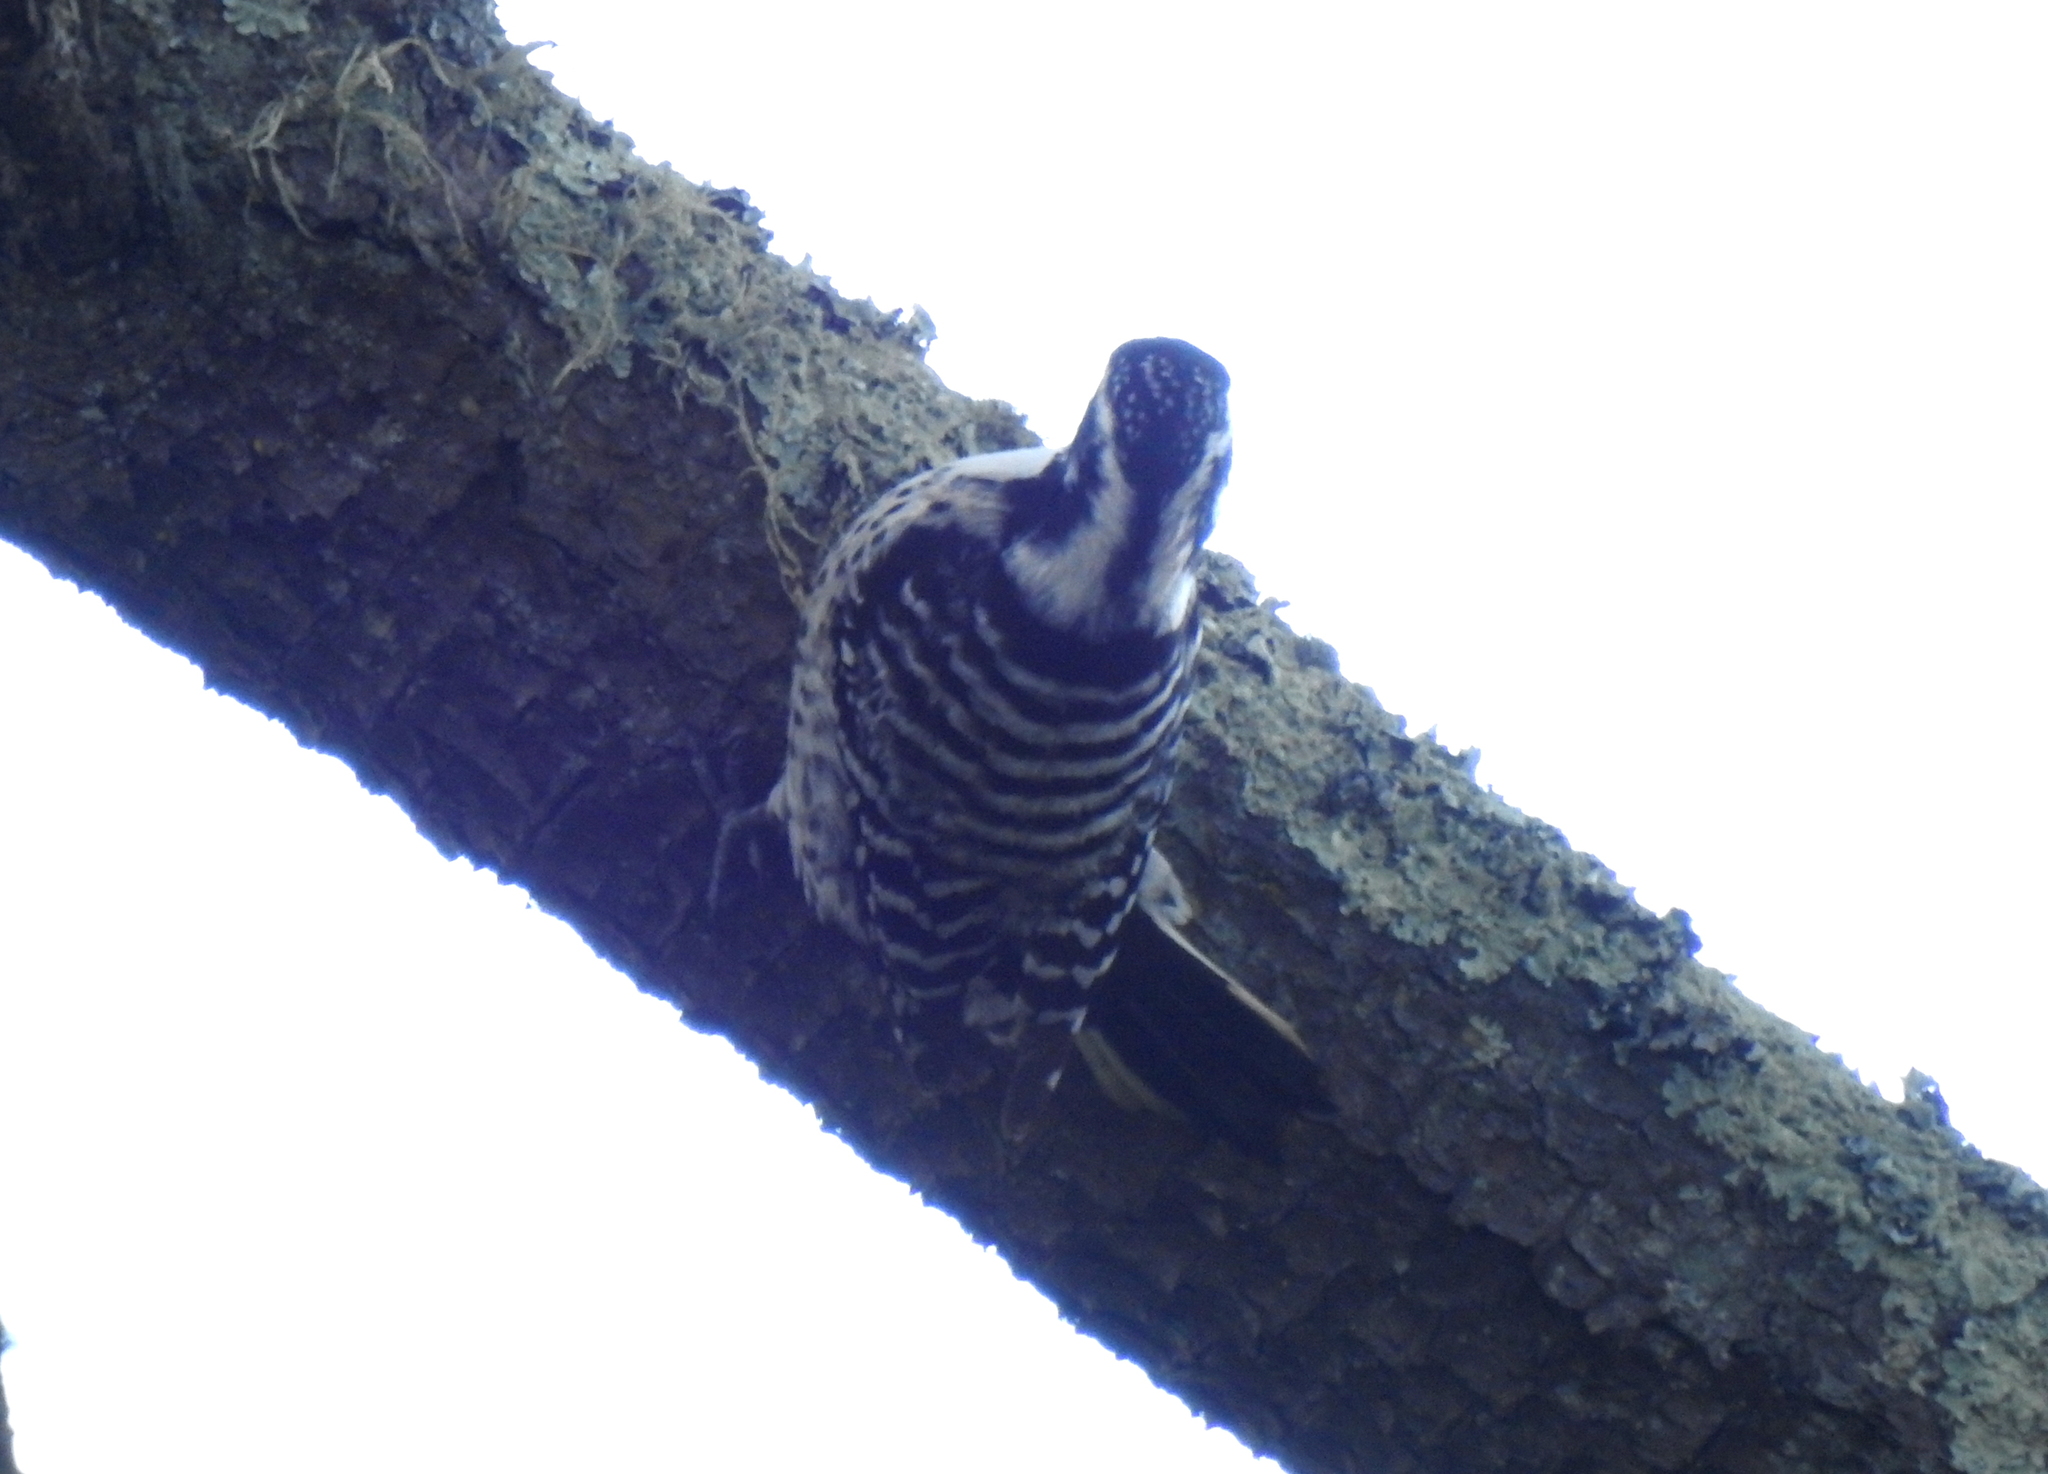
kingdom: Animalia
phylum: Chordata
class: Aves
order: Piciformes
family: Picidae
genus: Dryobates
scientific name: Dryobates nuttallii
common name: Nuttall's woodpecker
